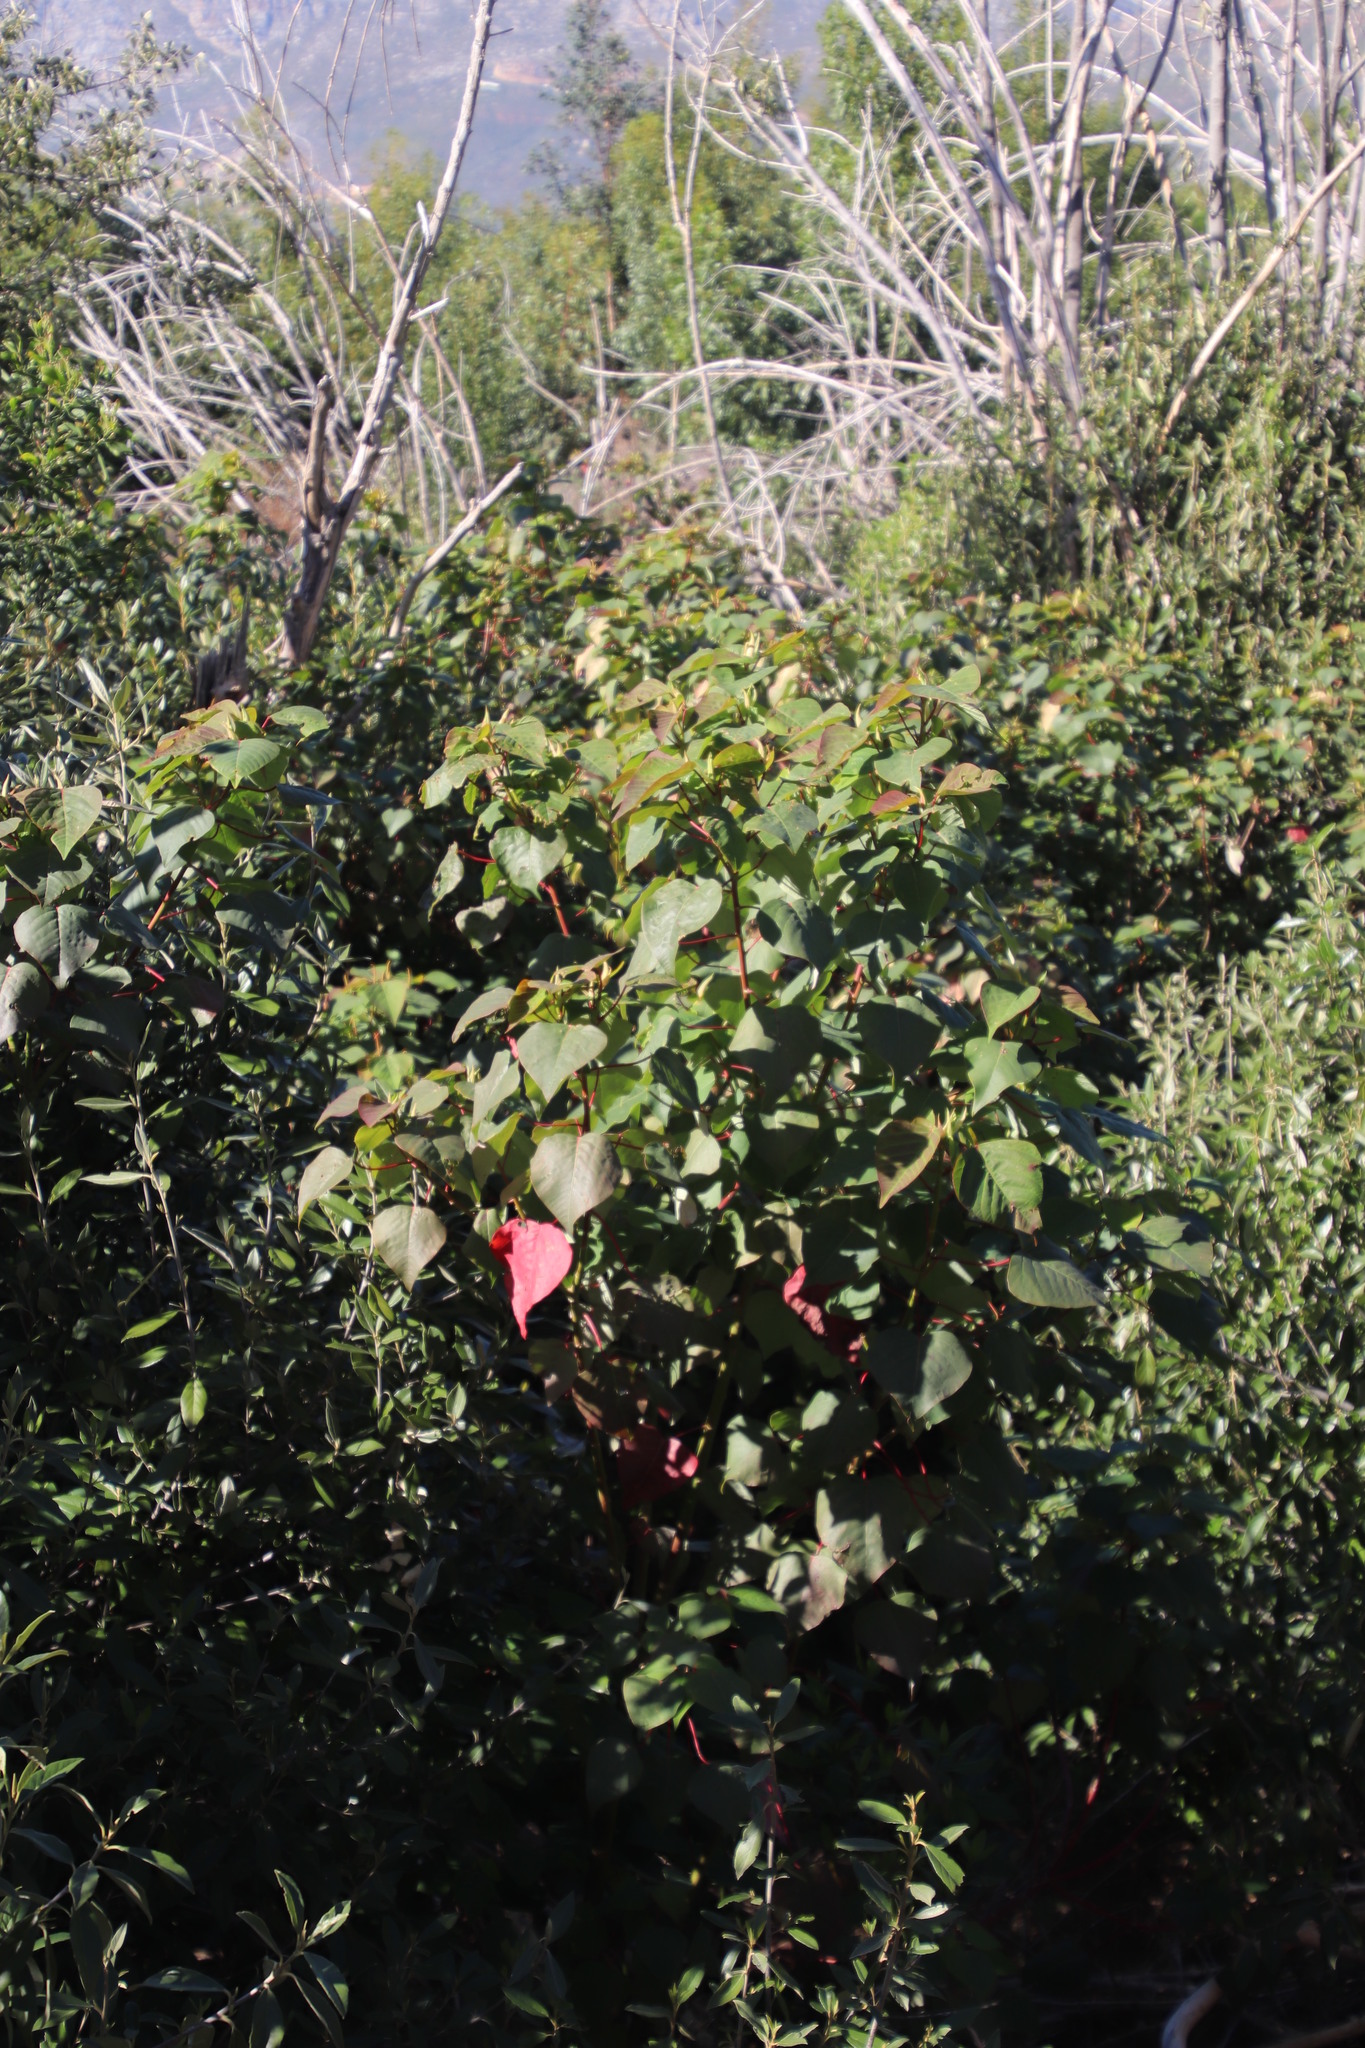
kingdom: Plantae
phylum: Tracheophyta
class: Magnoliopsida
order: Malpighiales
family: Euphorbiaceae
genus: Homalanthus
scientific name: Homalanthus populifolius
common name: Queensland poplar
